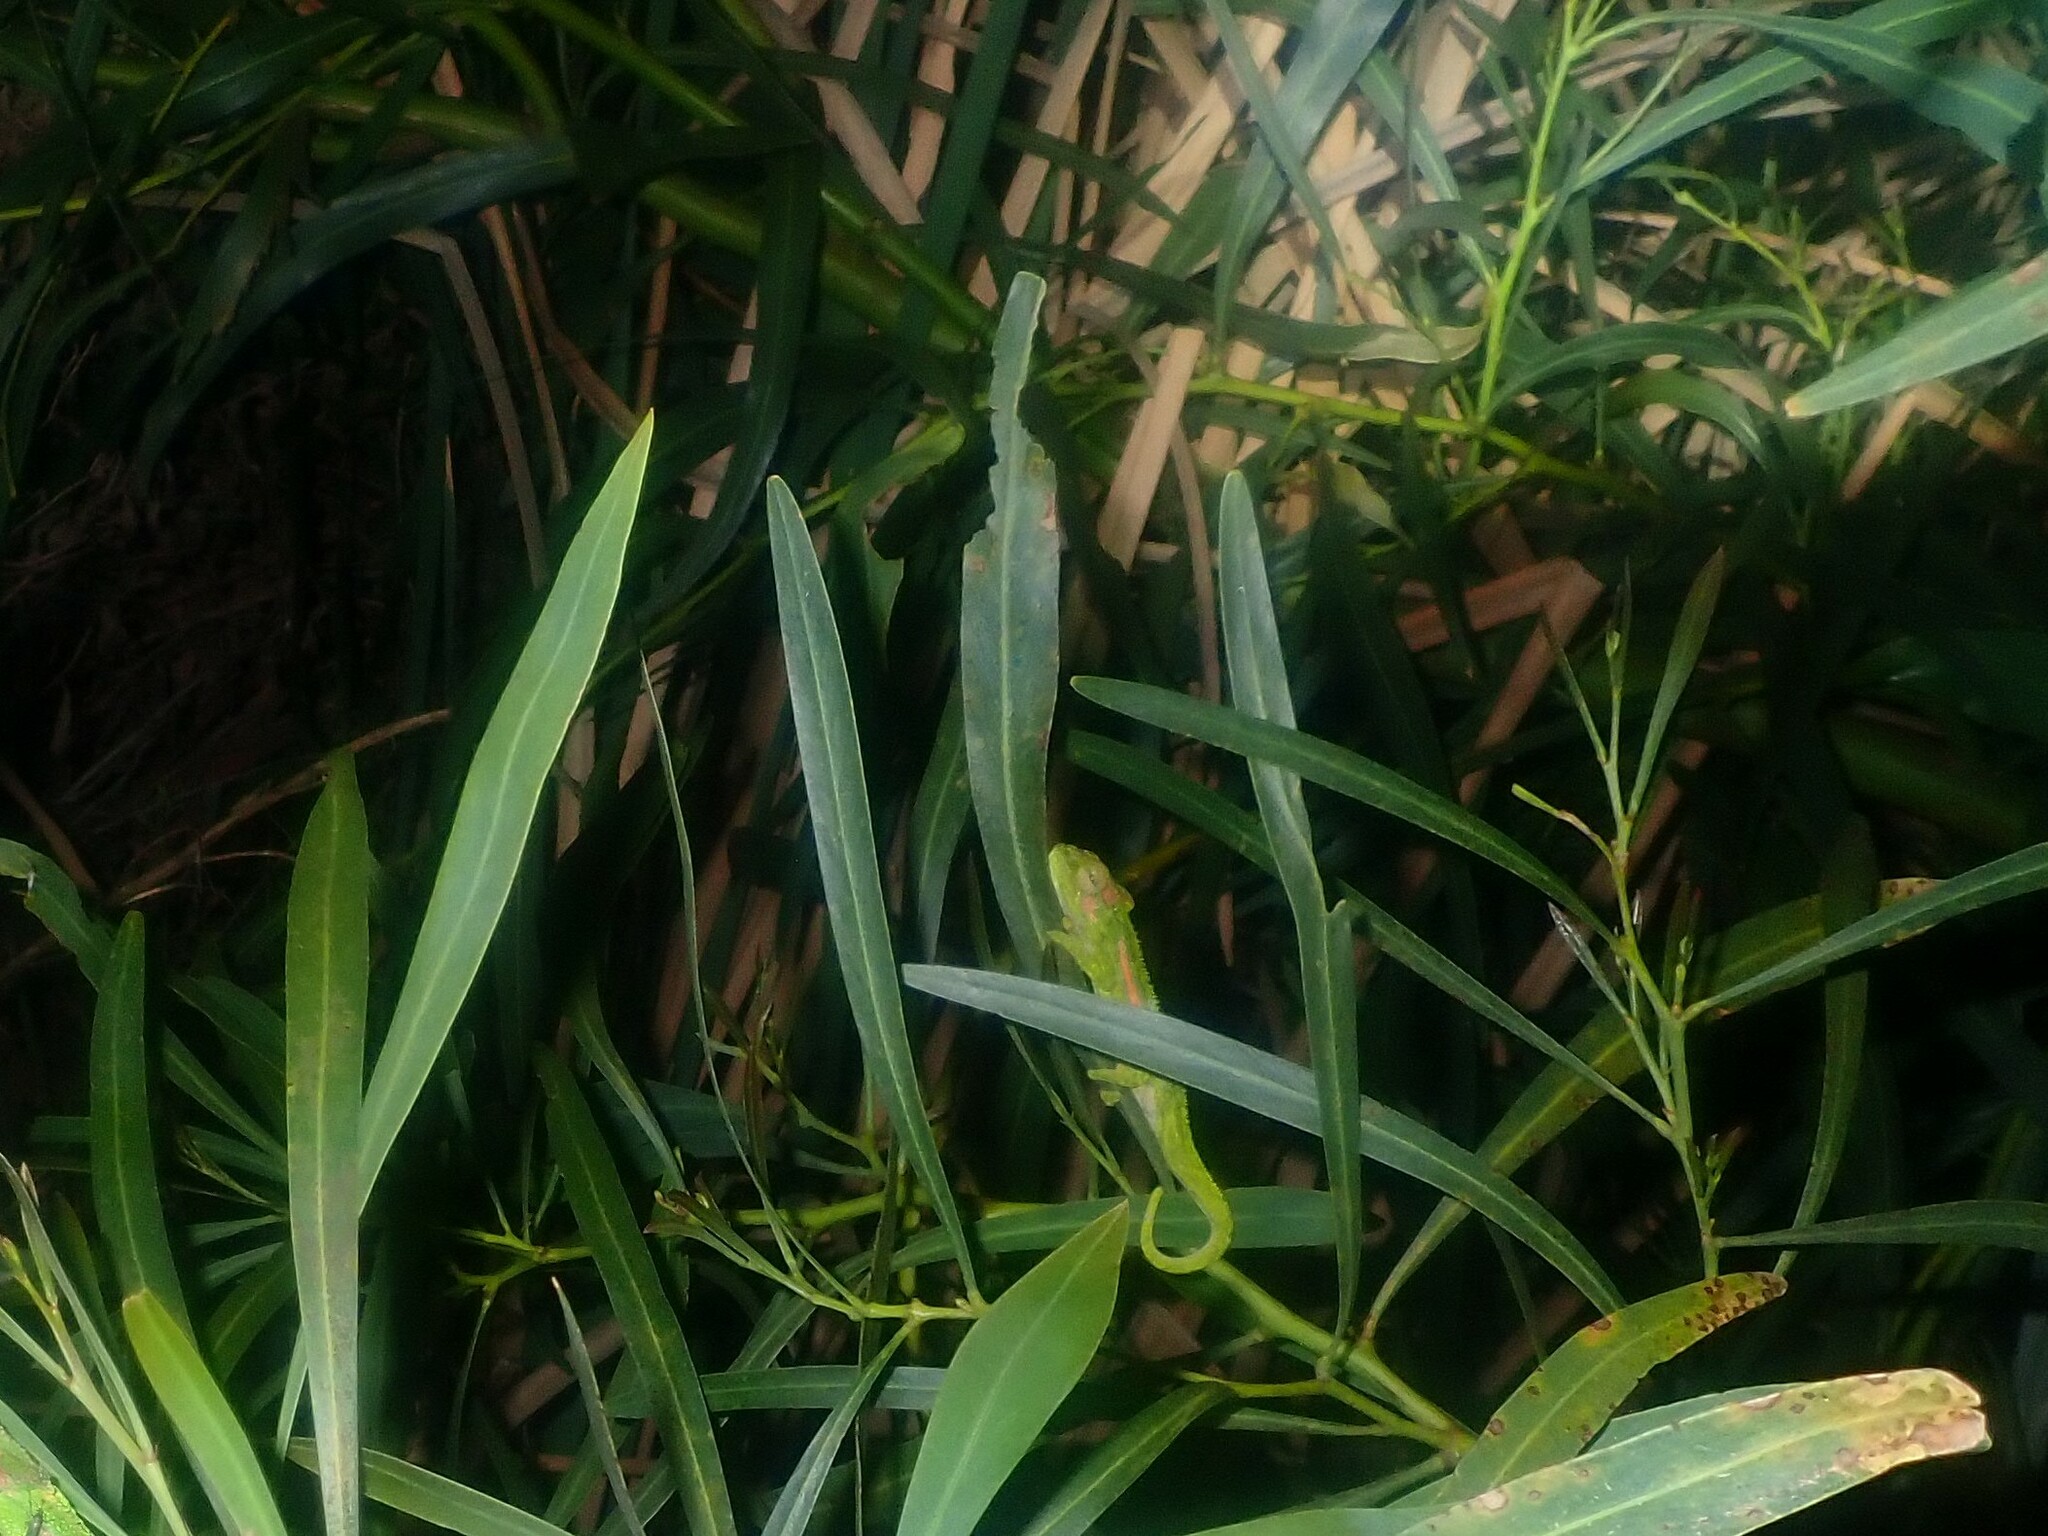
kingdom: Animalia
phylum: Chordata
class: Squamata
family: Chamaeleonidae
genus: Bradypodion
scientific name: Bradypodion pumilum
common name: Cape dwarf chameleon
